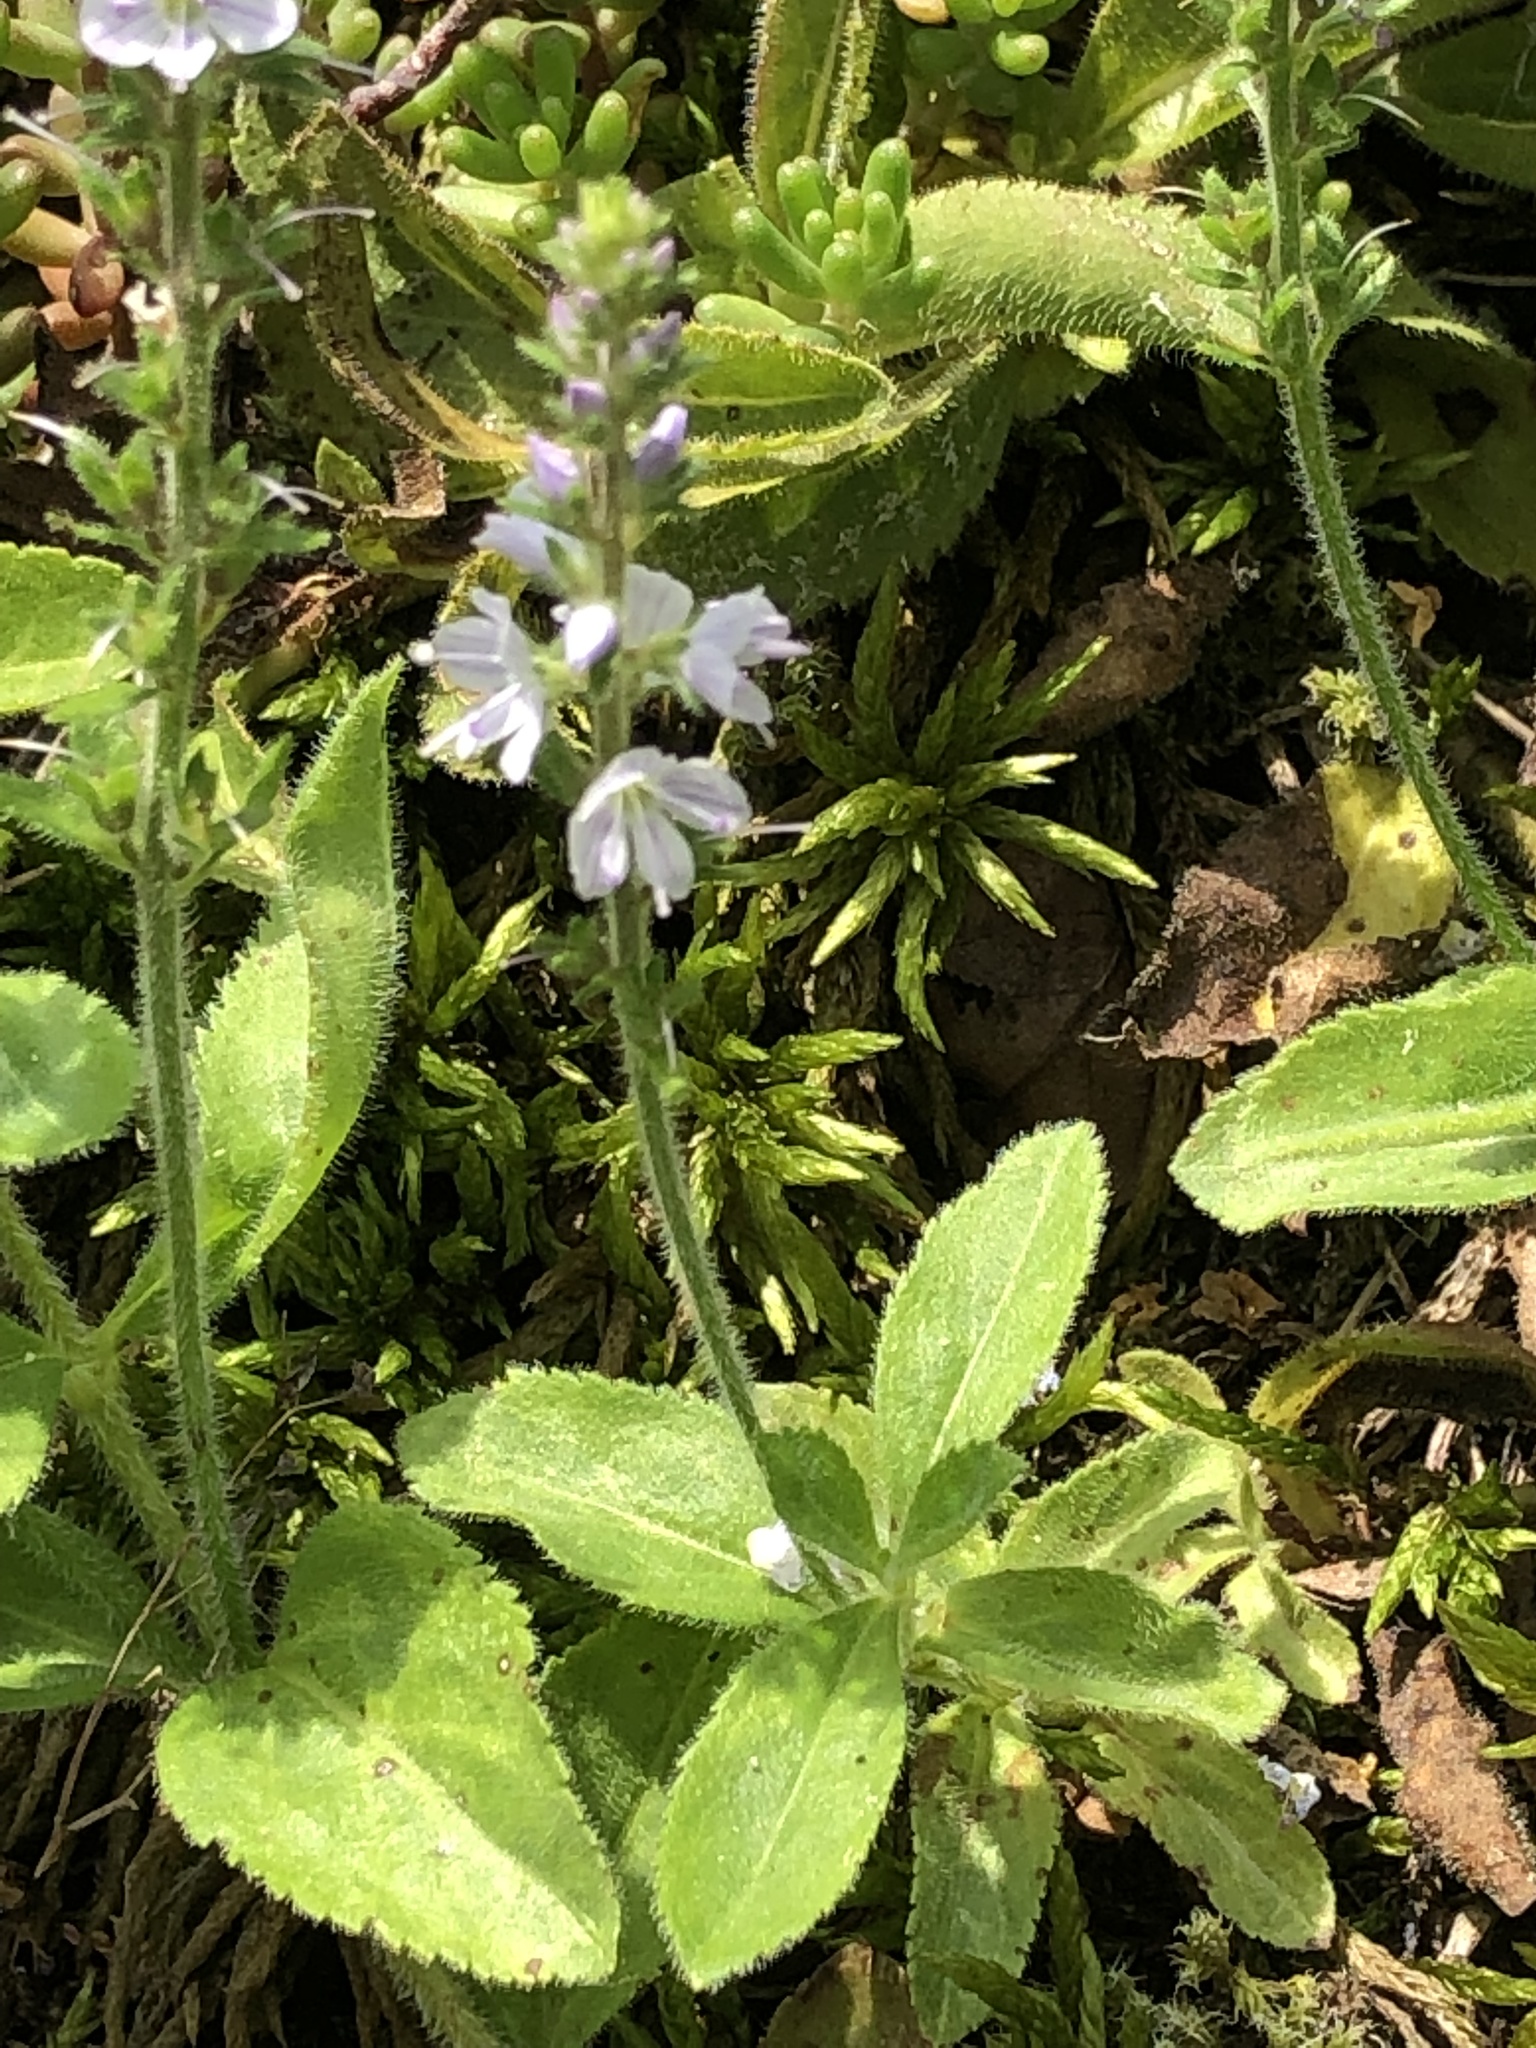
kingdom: Plantae
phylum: Tracheophyta
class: Magnoliopsida
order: Lamiales
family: Plantaginaceae
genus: Veronica
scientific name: Veronica officinalis
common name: Common speedwell
